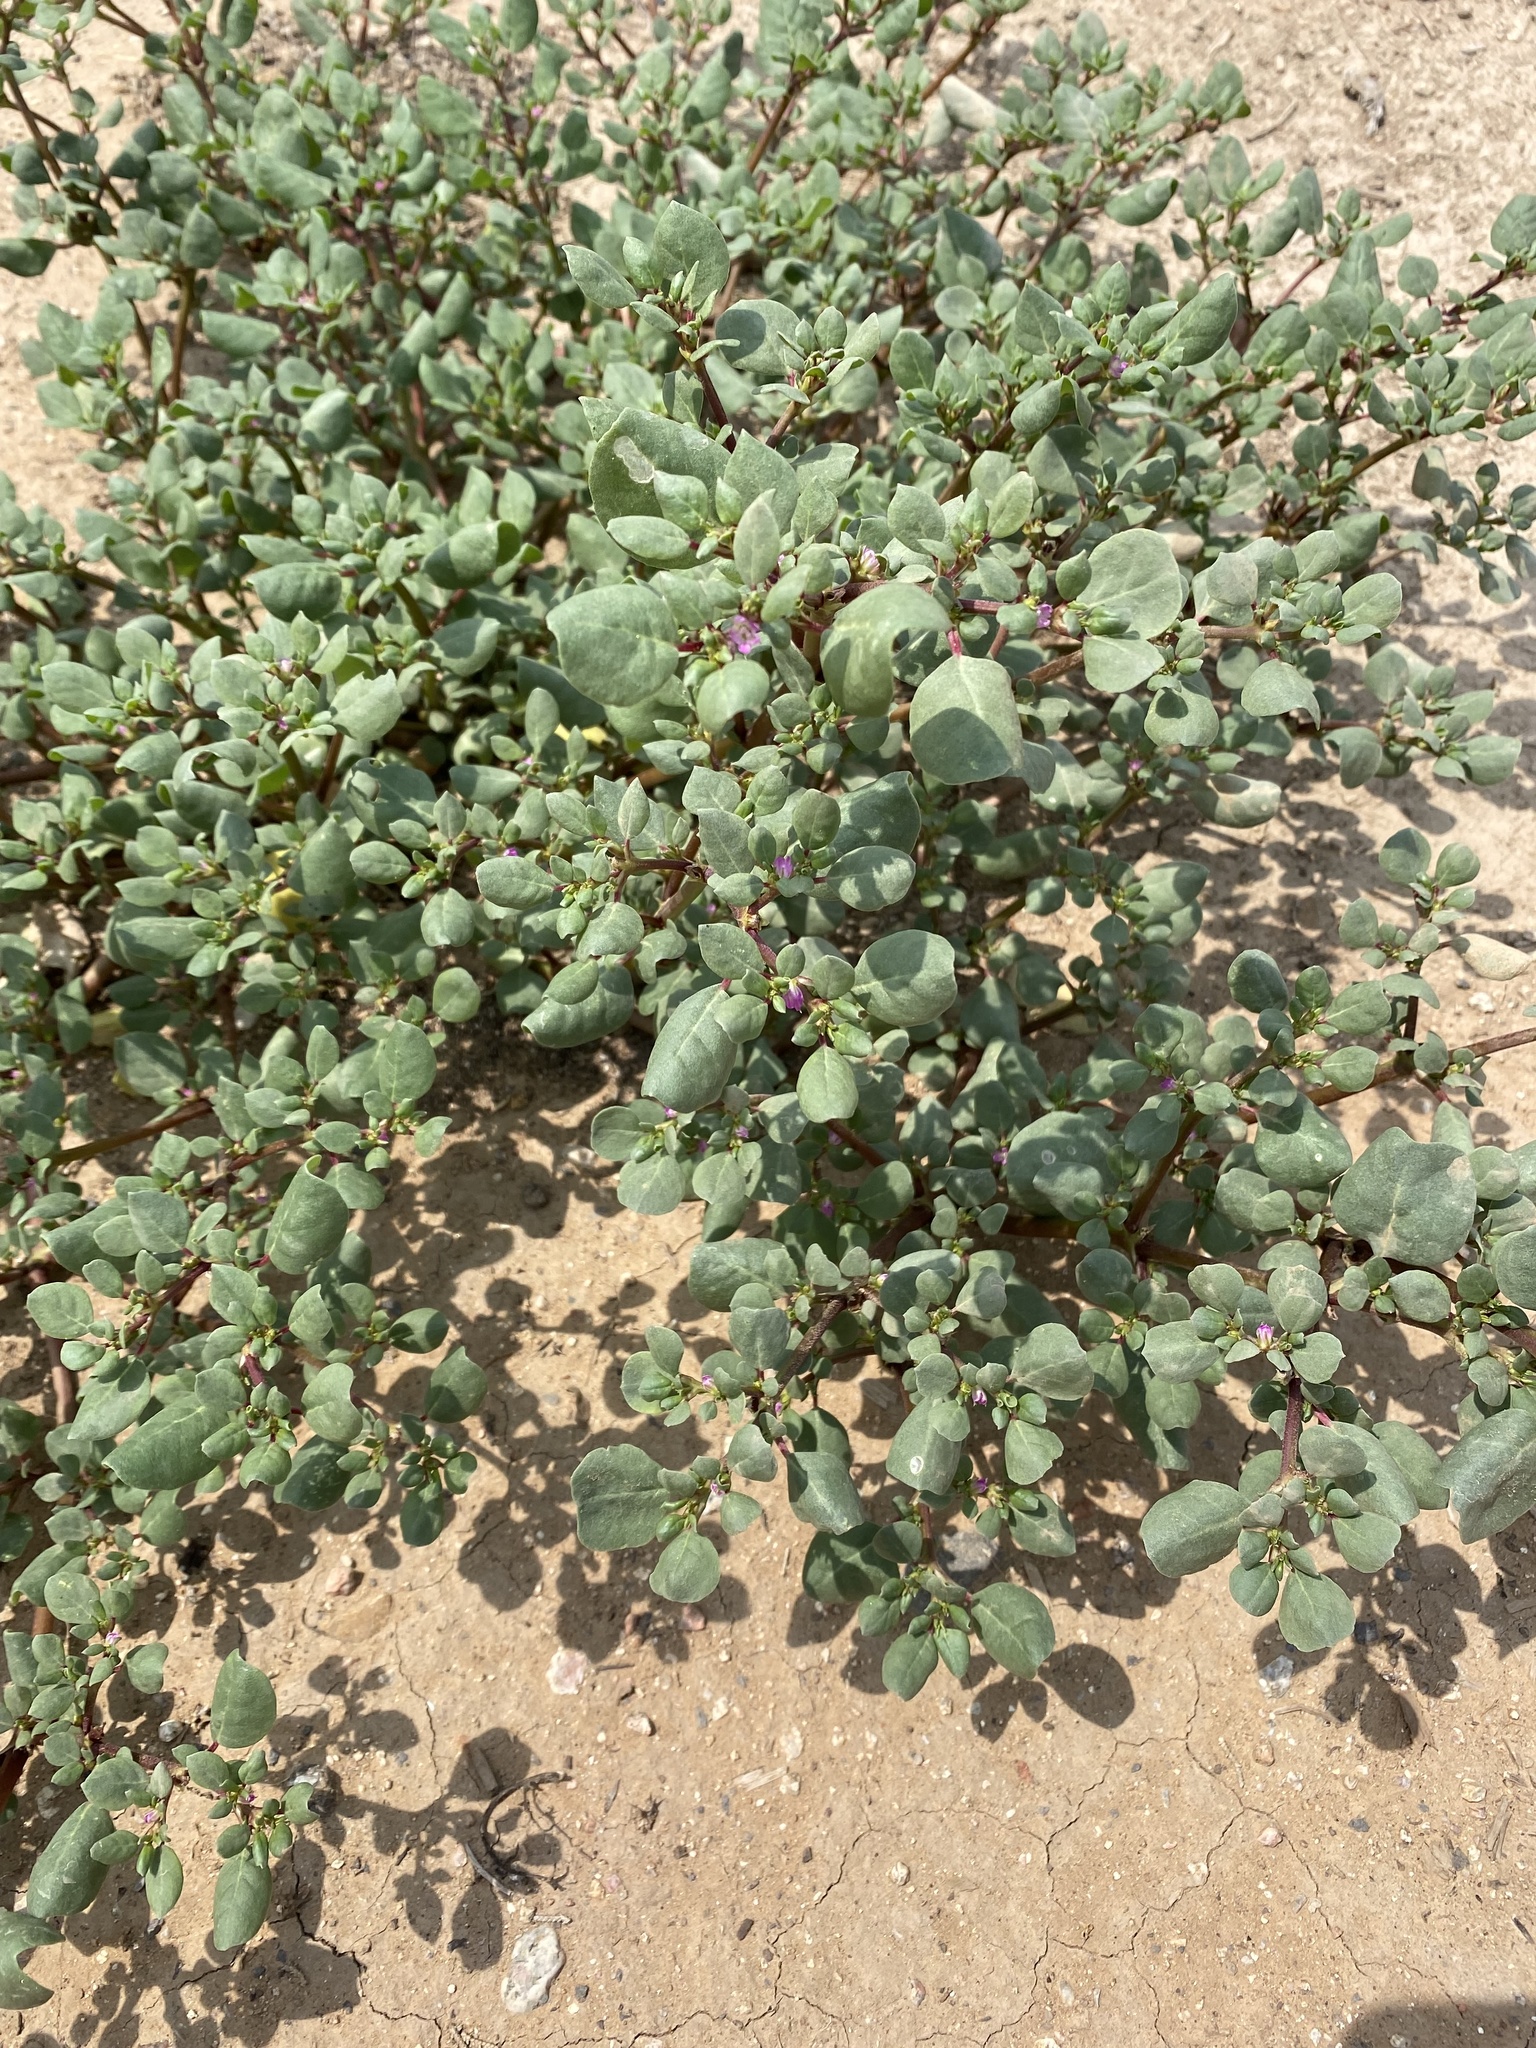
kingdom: Plantae
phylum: Tracheophyta
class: Magnoliopsida
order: Caryophyllales
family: Aizoaceae
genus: Trianthema
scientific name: Trianthema portulacastrum
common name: Desert horsepurslane
